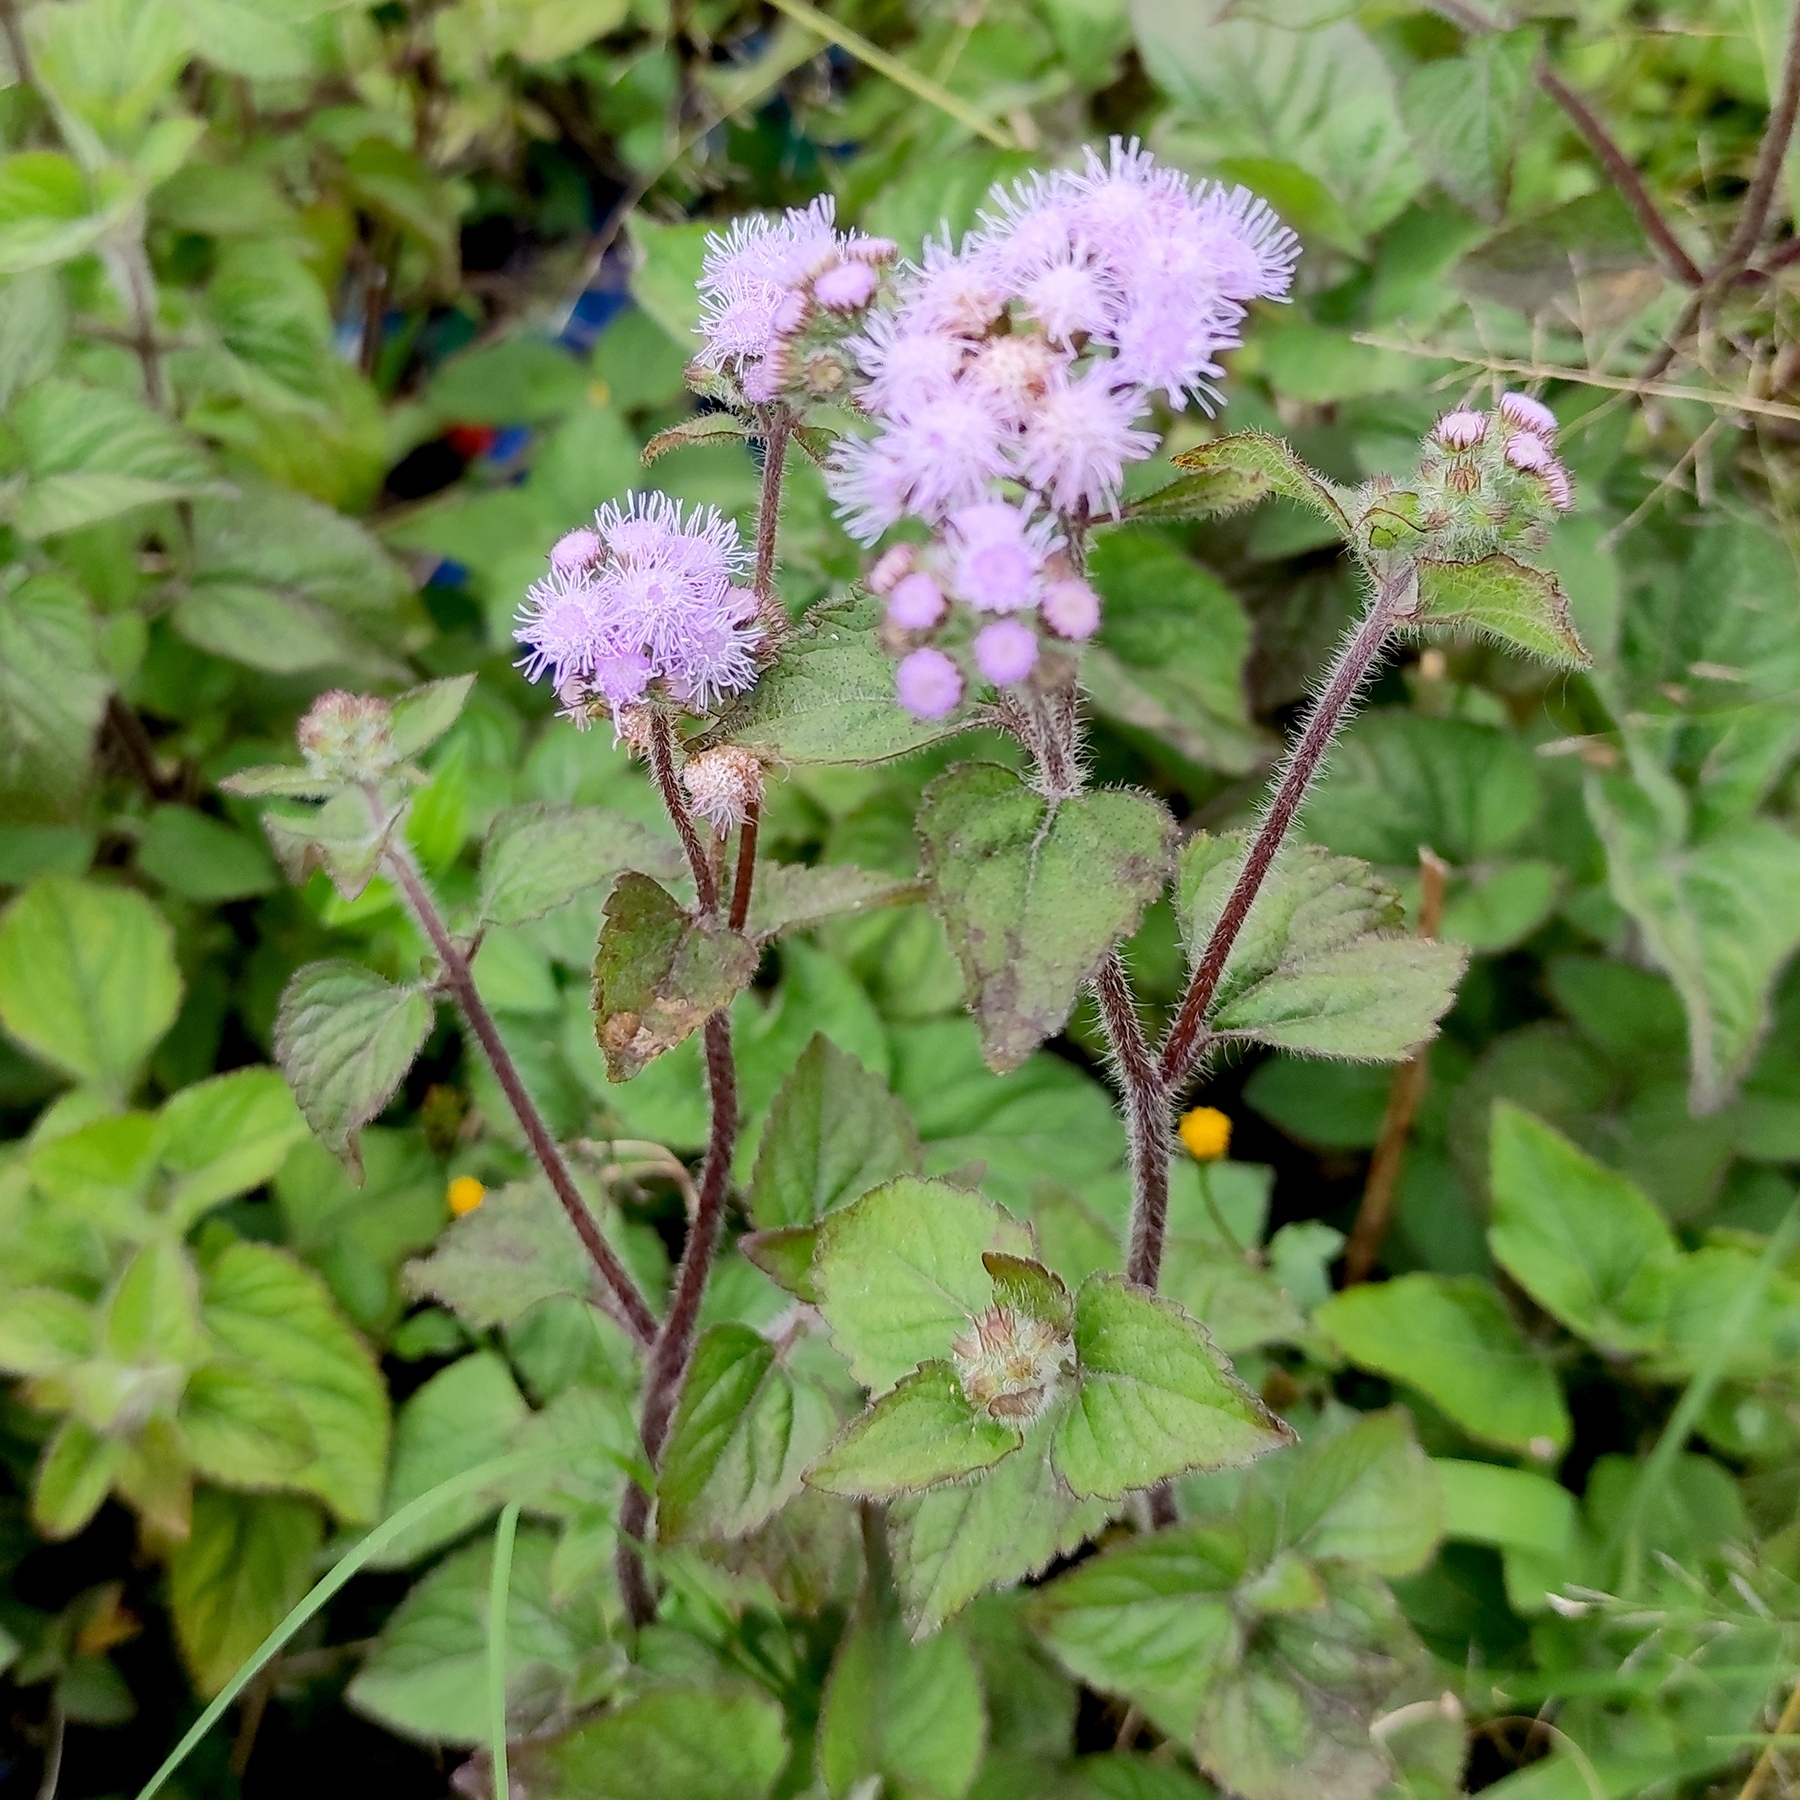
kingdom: Plantae
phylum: Tracheophyta
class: Magnoliopsida
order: Asterales
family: Asteraceae
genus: Ageratum
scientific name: Ageratum houstonianum
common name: Bluemink
